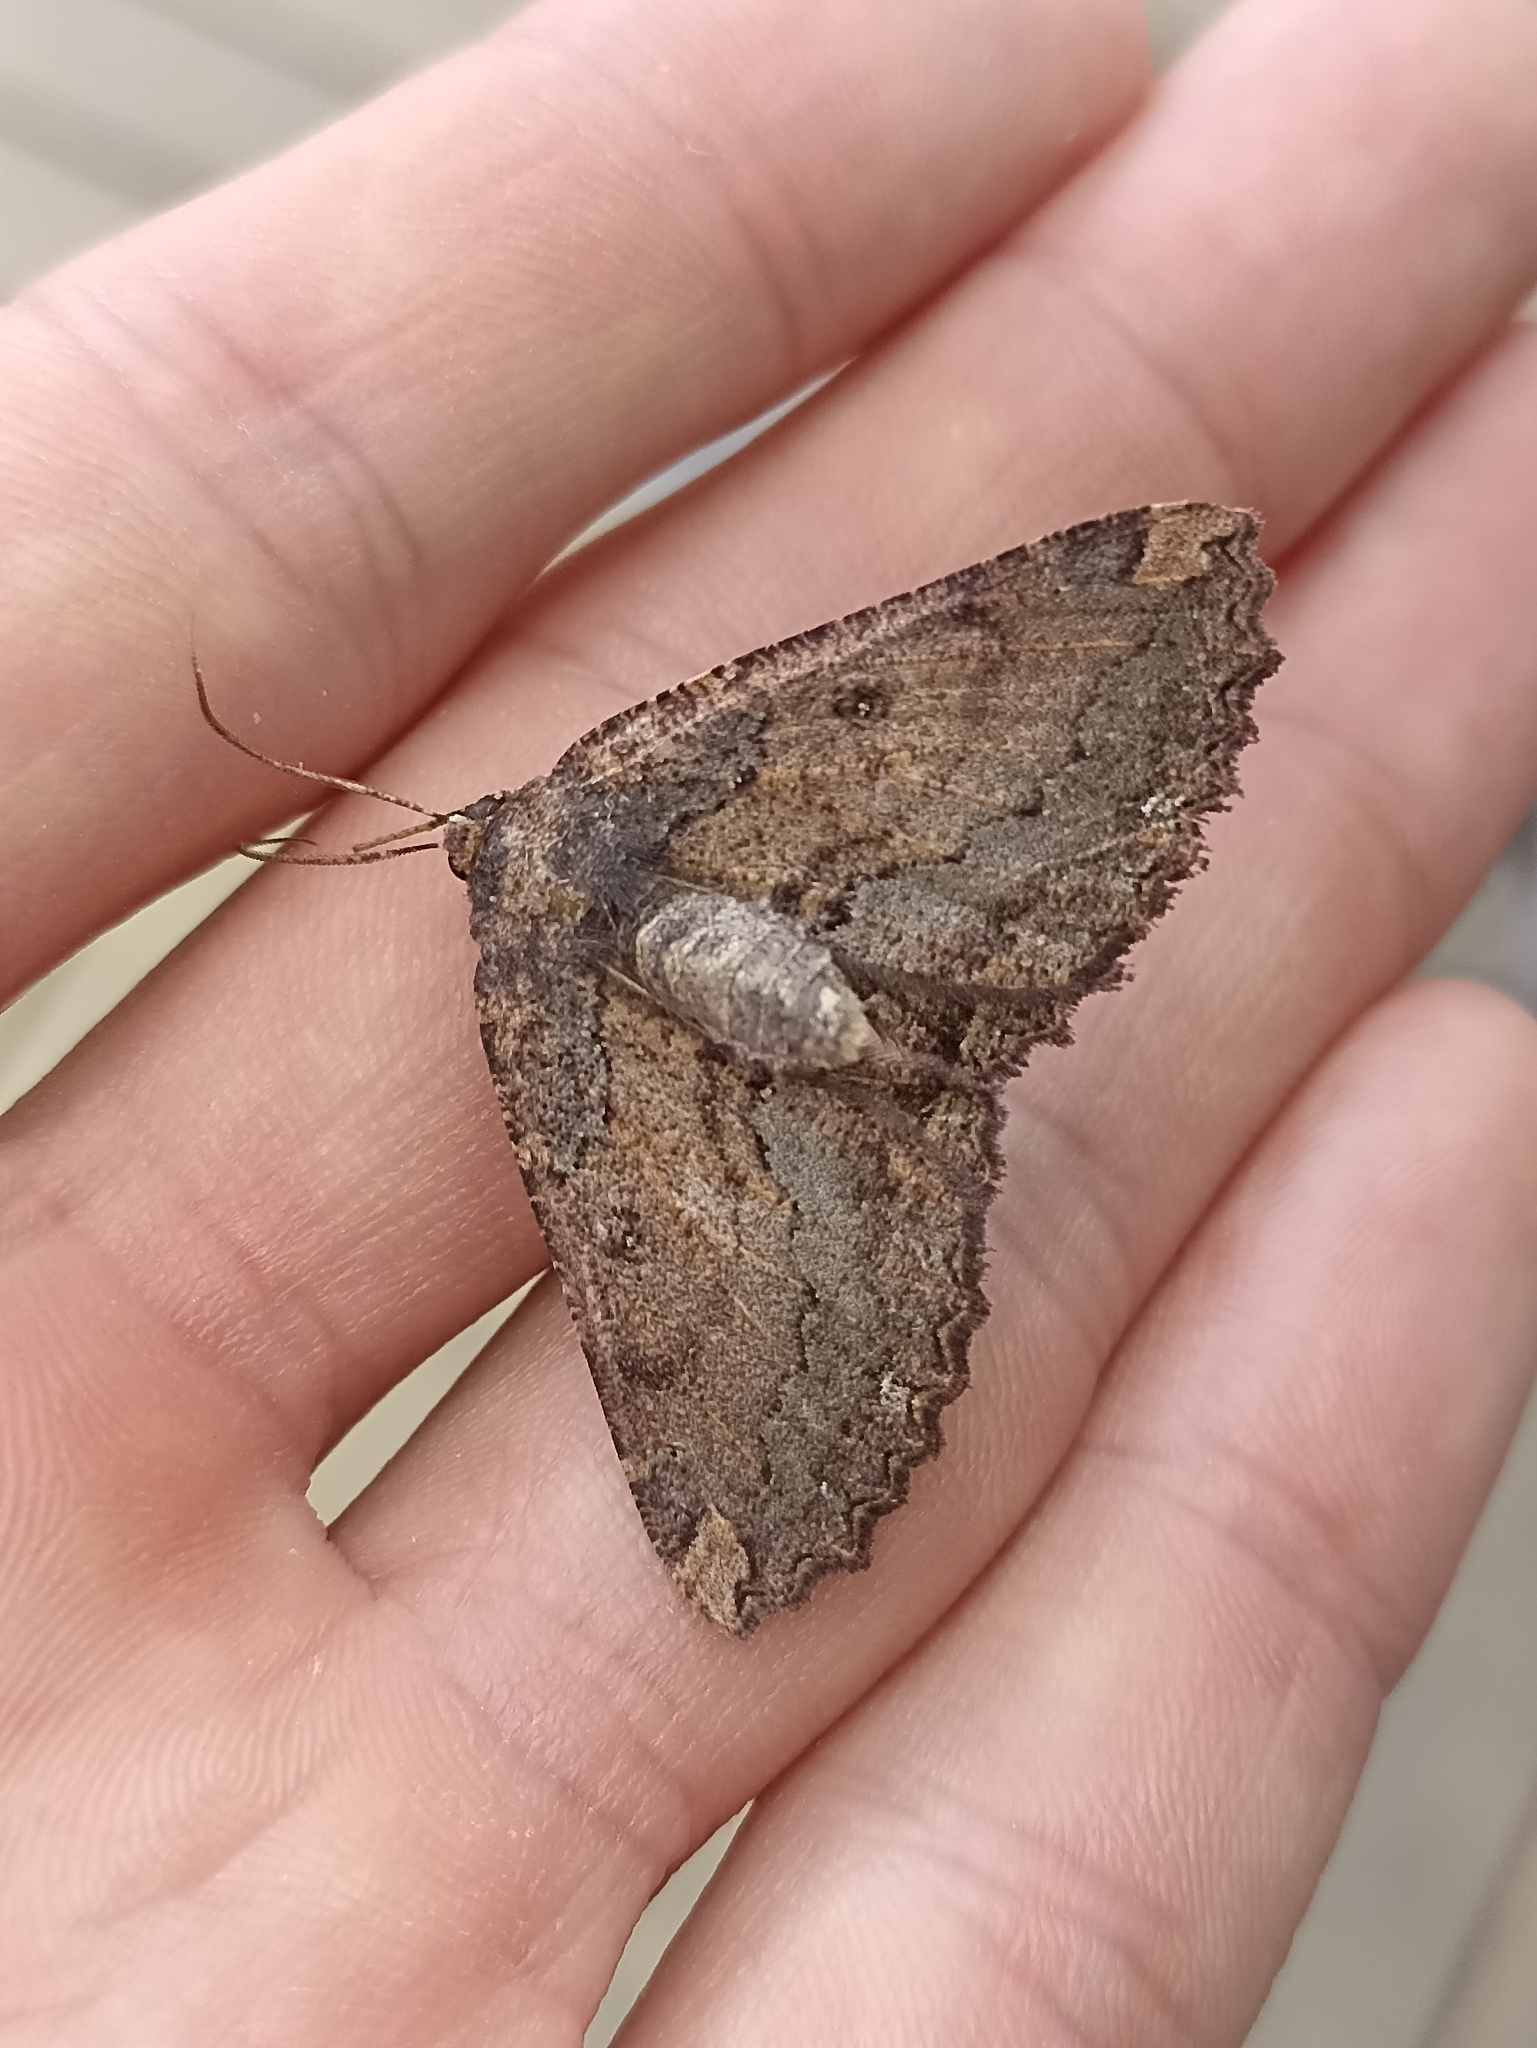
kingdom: Animalia
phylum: Arthropoda
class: Insecta
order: Lepidoptera
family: Geometridae
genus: Gellonia
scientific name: Gellonia dejectaria
